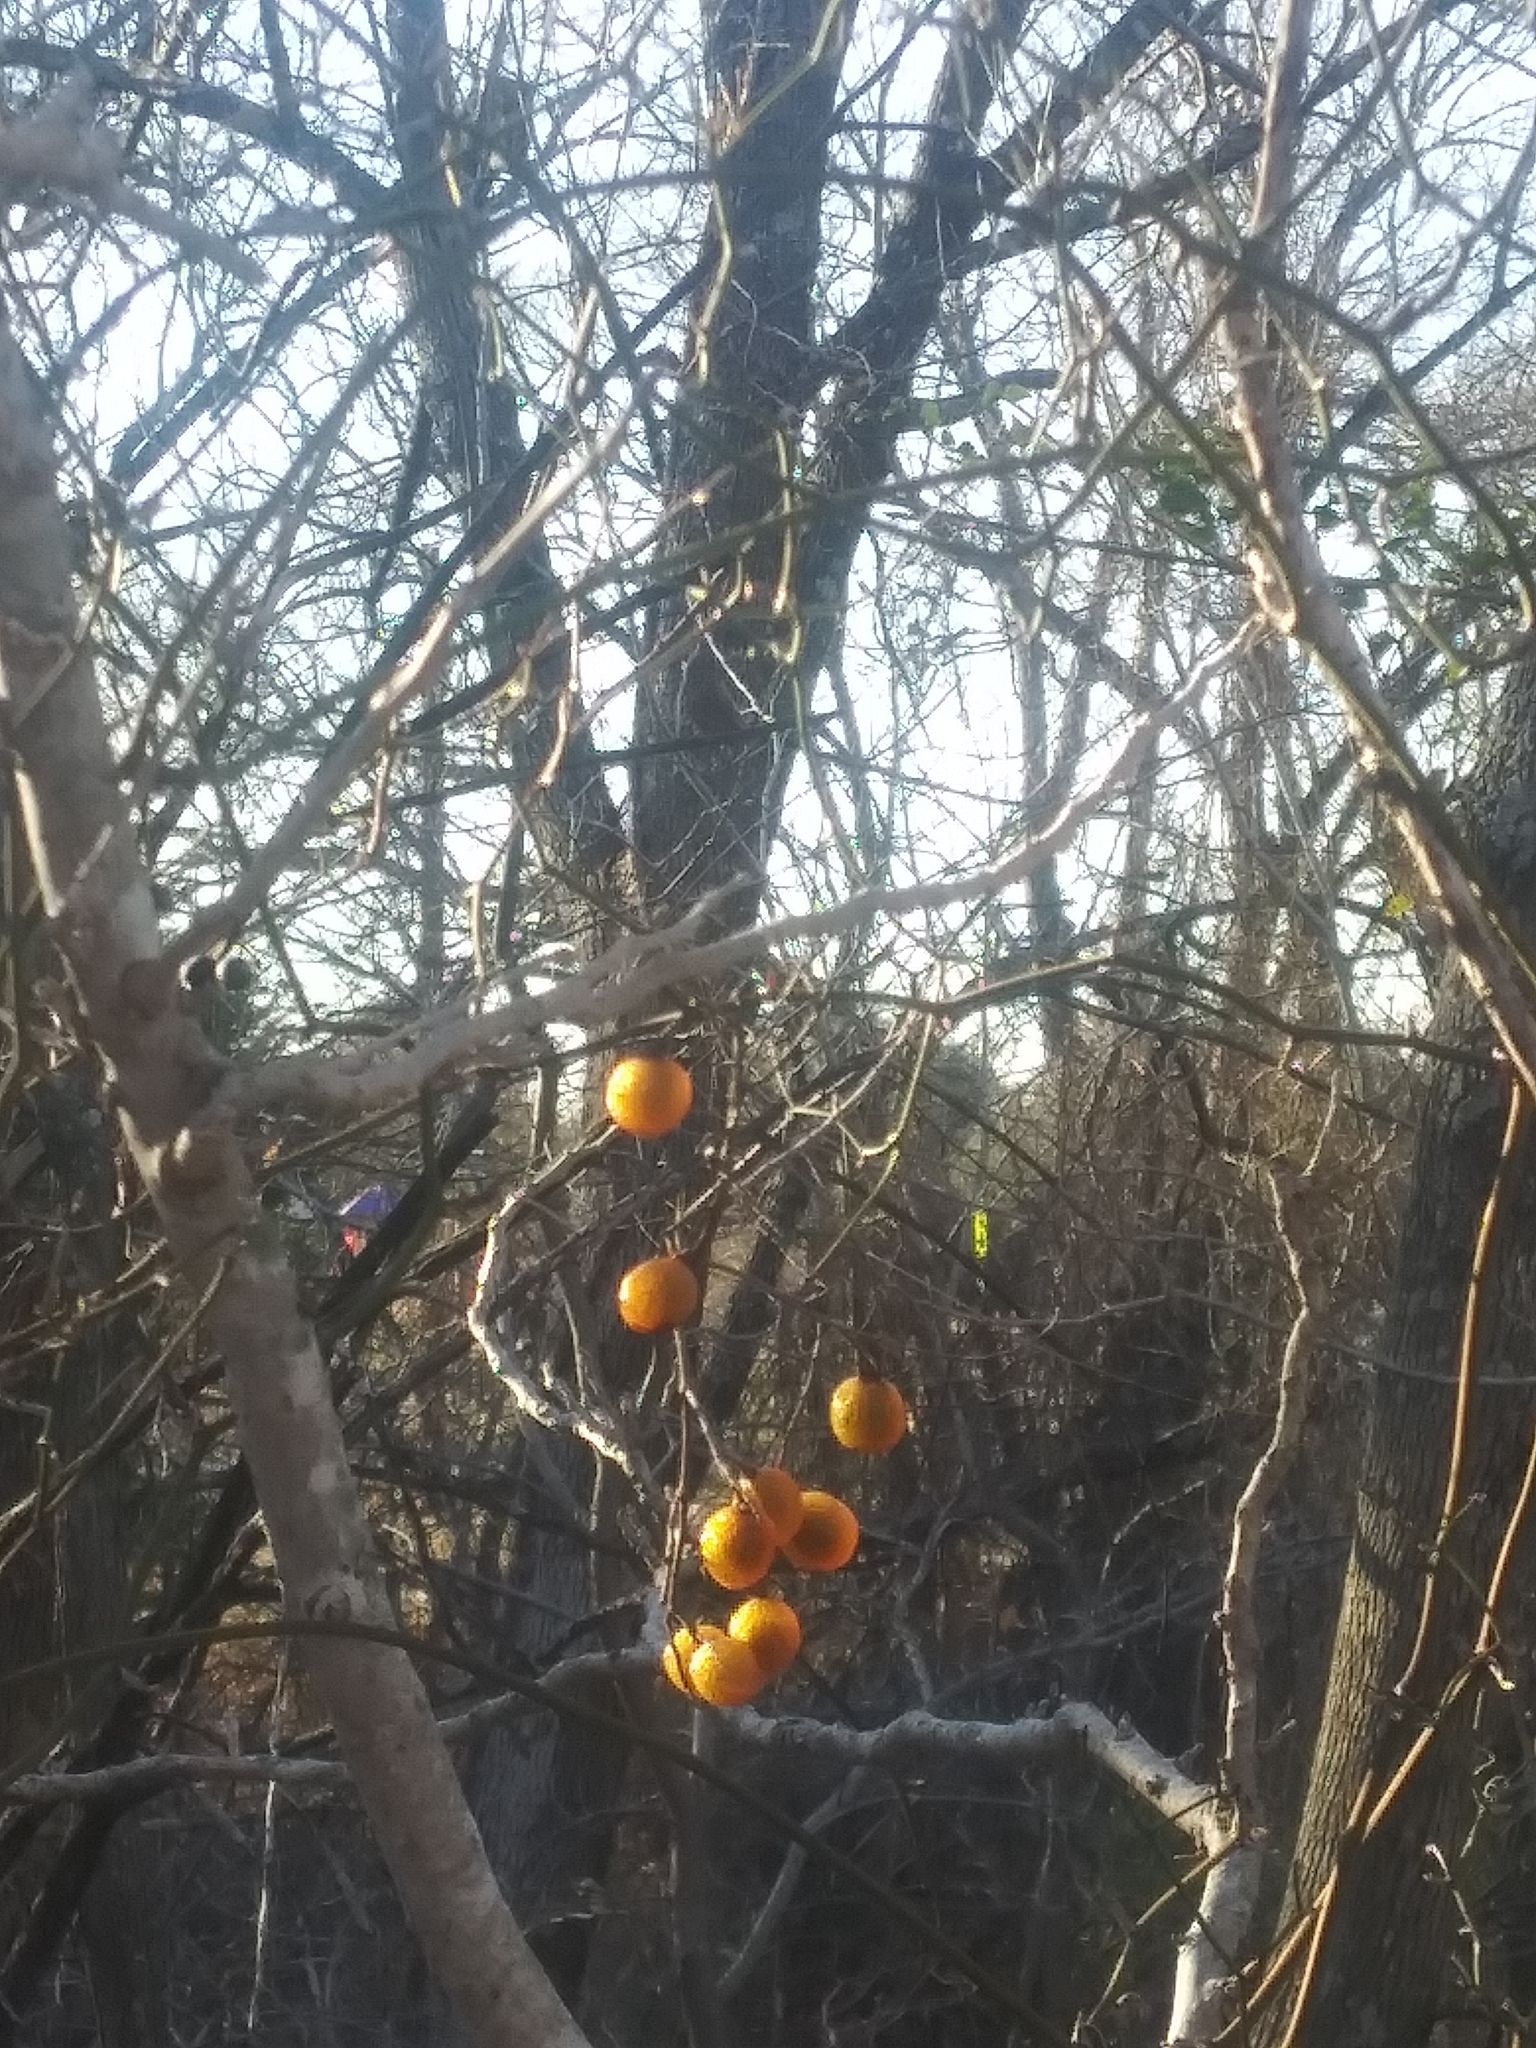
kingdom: Plantae
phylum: Tracheophyta
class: Magnoliopsida
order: Sapindales
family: Sapindaceae
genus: Sapindus
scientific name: Sapindus drummondii
